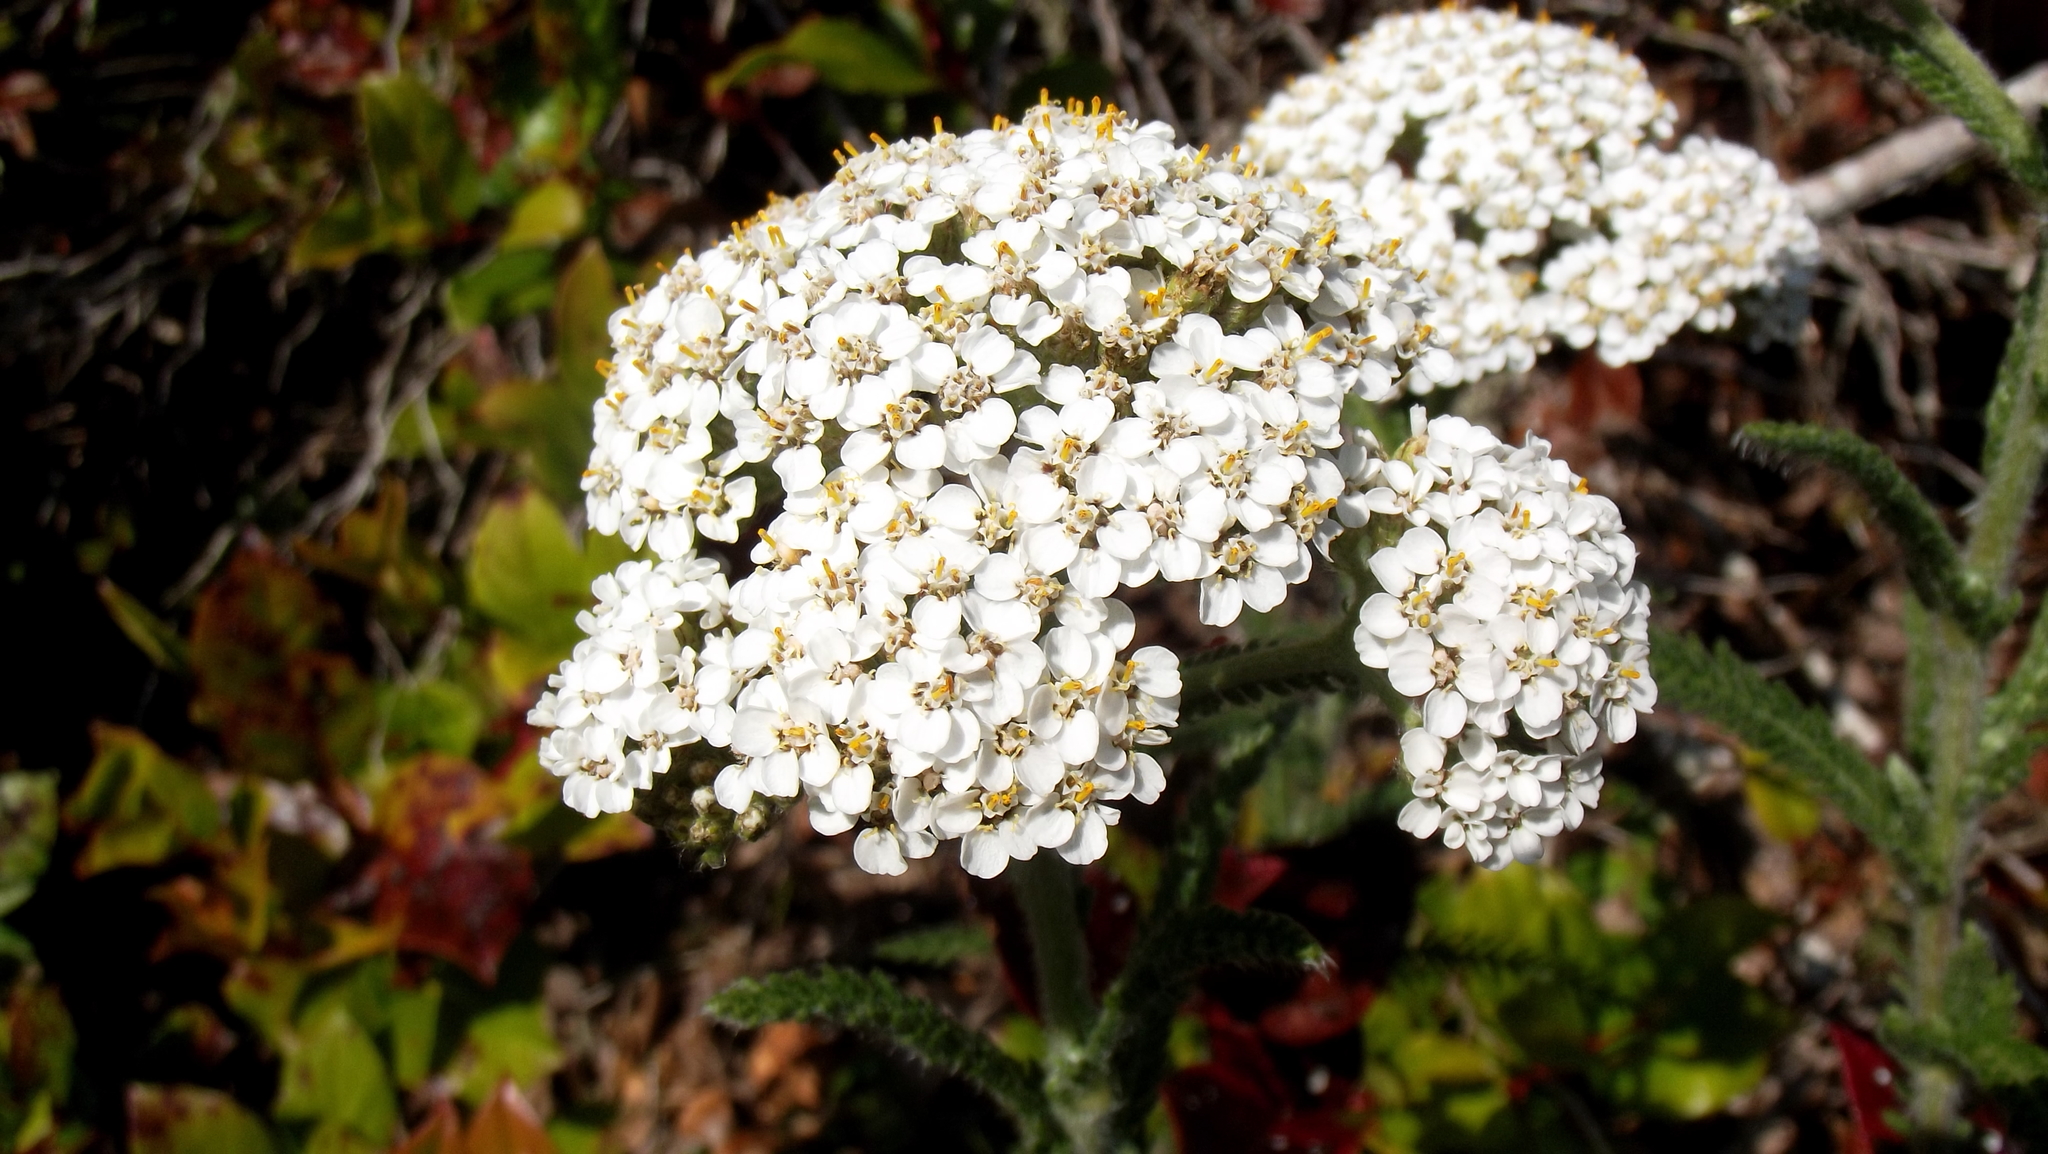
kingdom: Plantae
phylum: Tracheophyta
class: Magnoliopsida
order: Asterales
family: Asteraceae
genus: Achillea
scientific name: Achillea millefolium
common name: Yarrow
